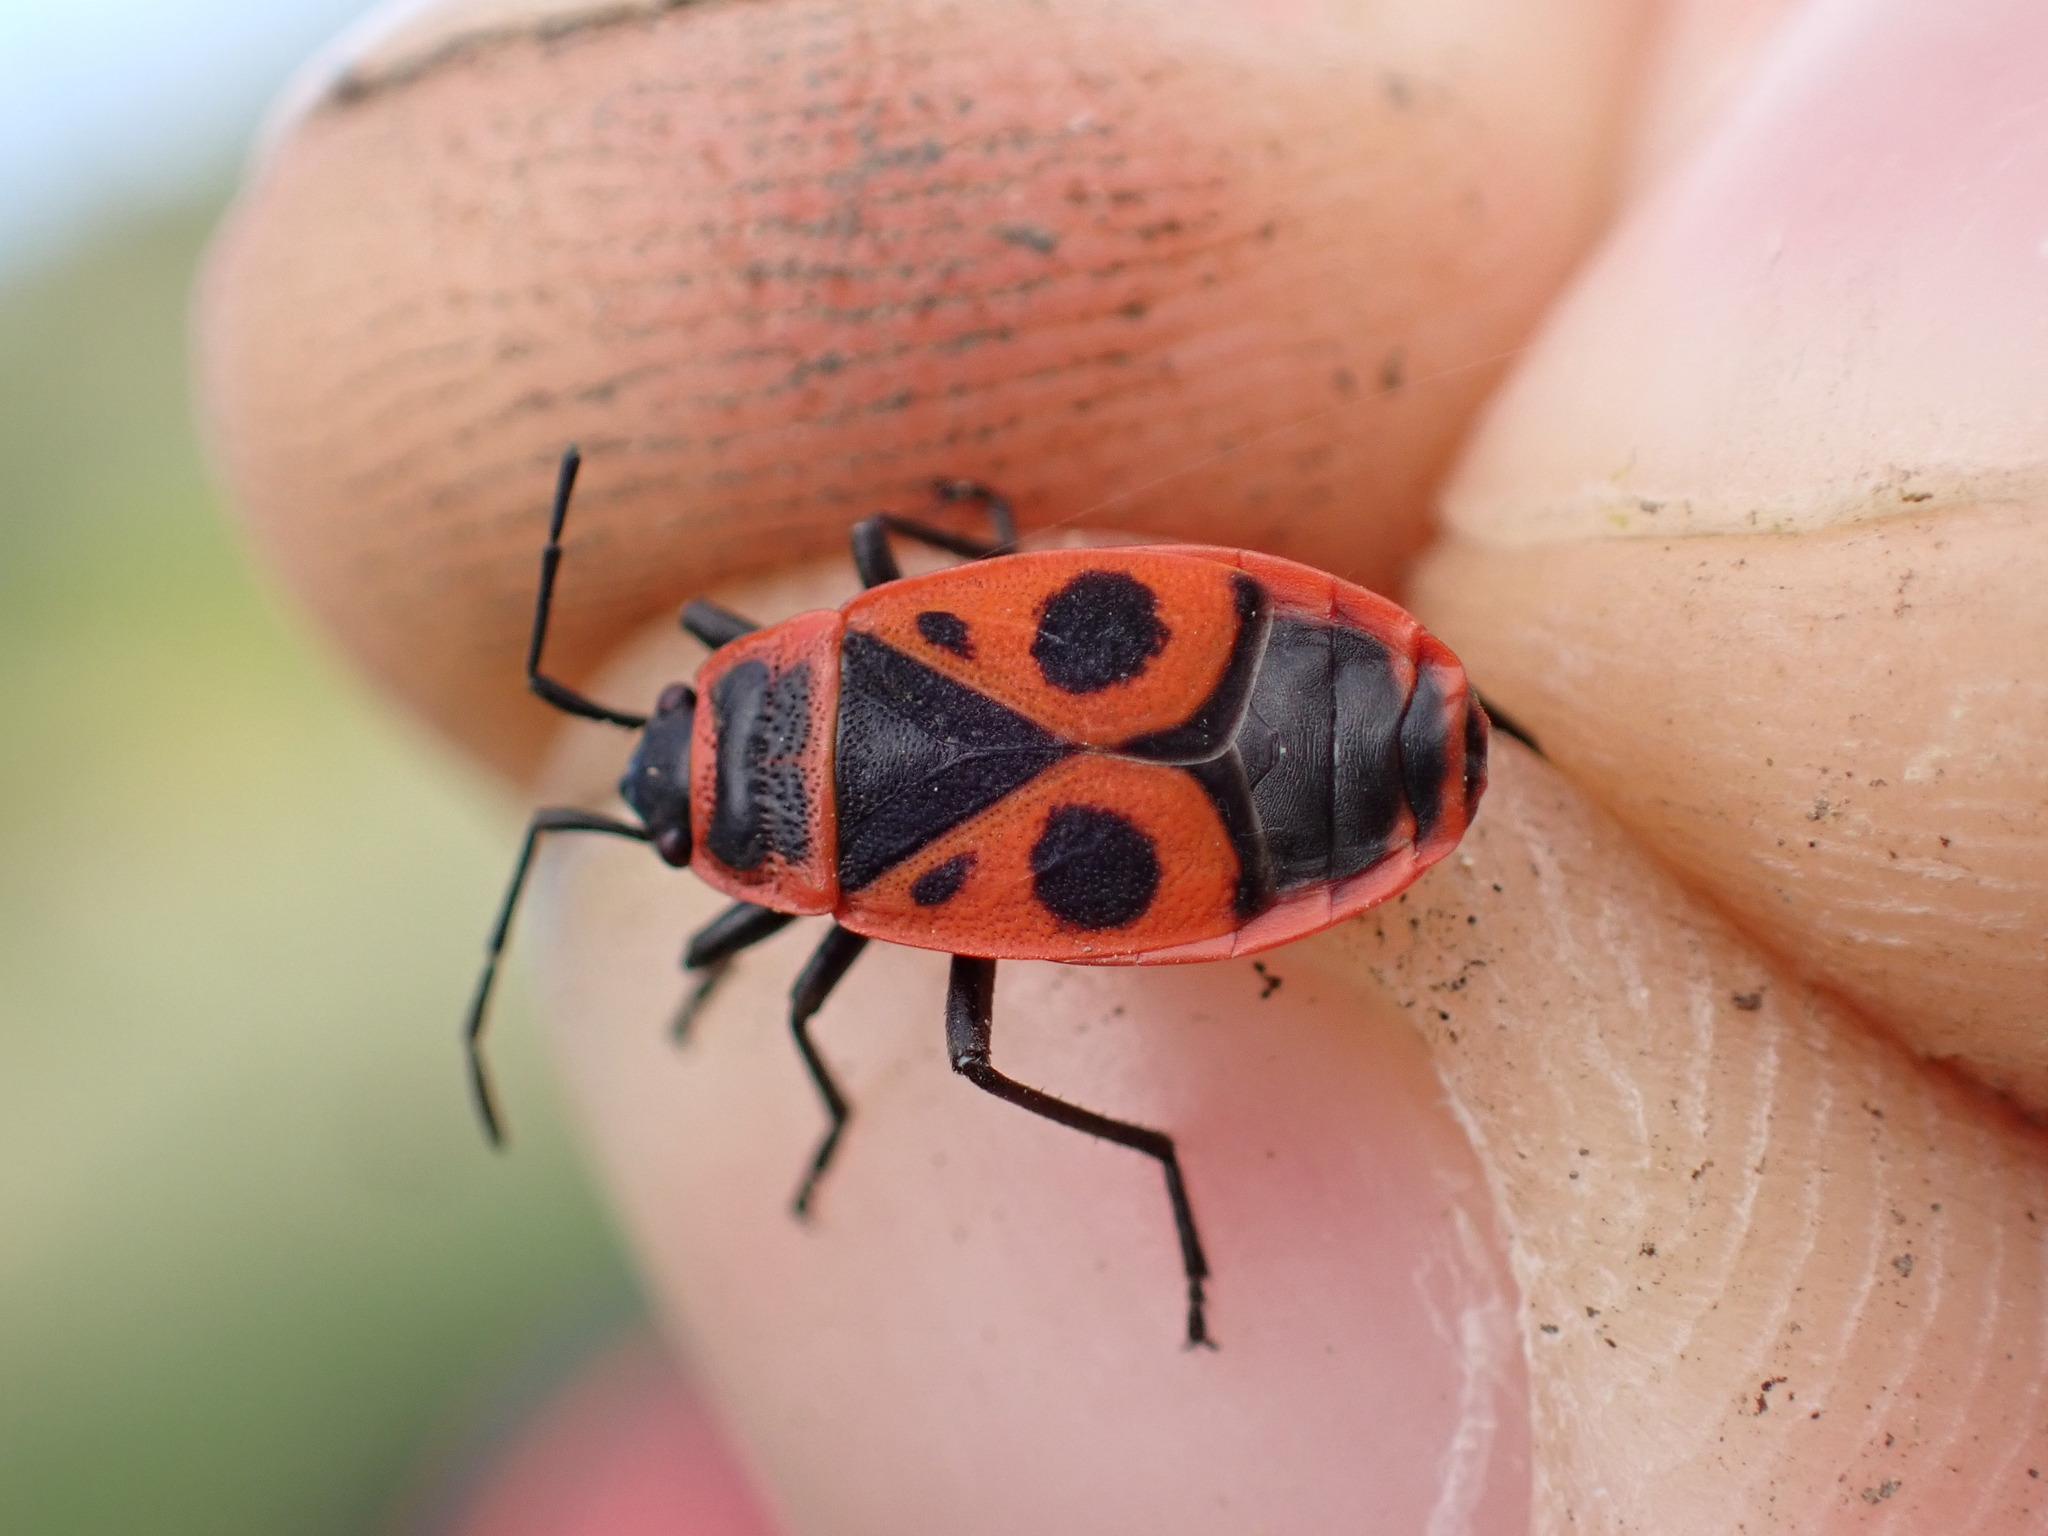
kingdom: Animalia
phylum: Arthropoda
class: Insecta
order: Hemiptera
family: Pyrrhocoridae
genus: Pyrrhocoris
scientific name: Pyrrhocoris apterus
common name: Firebug
